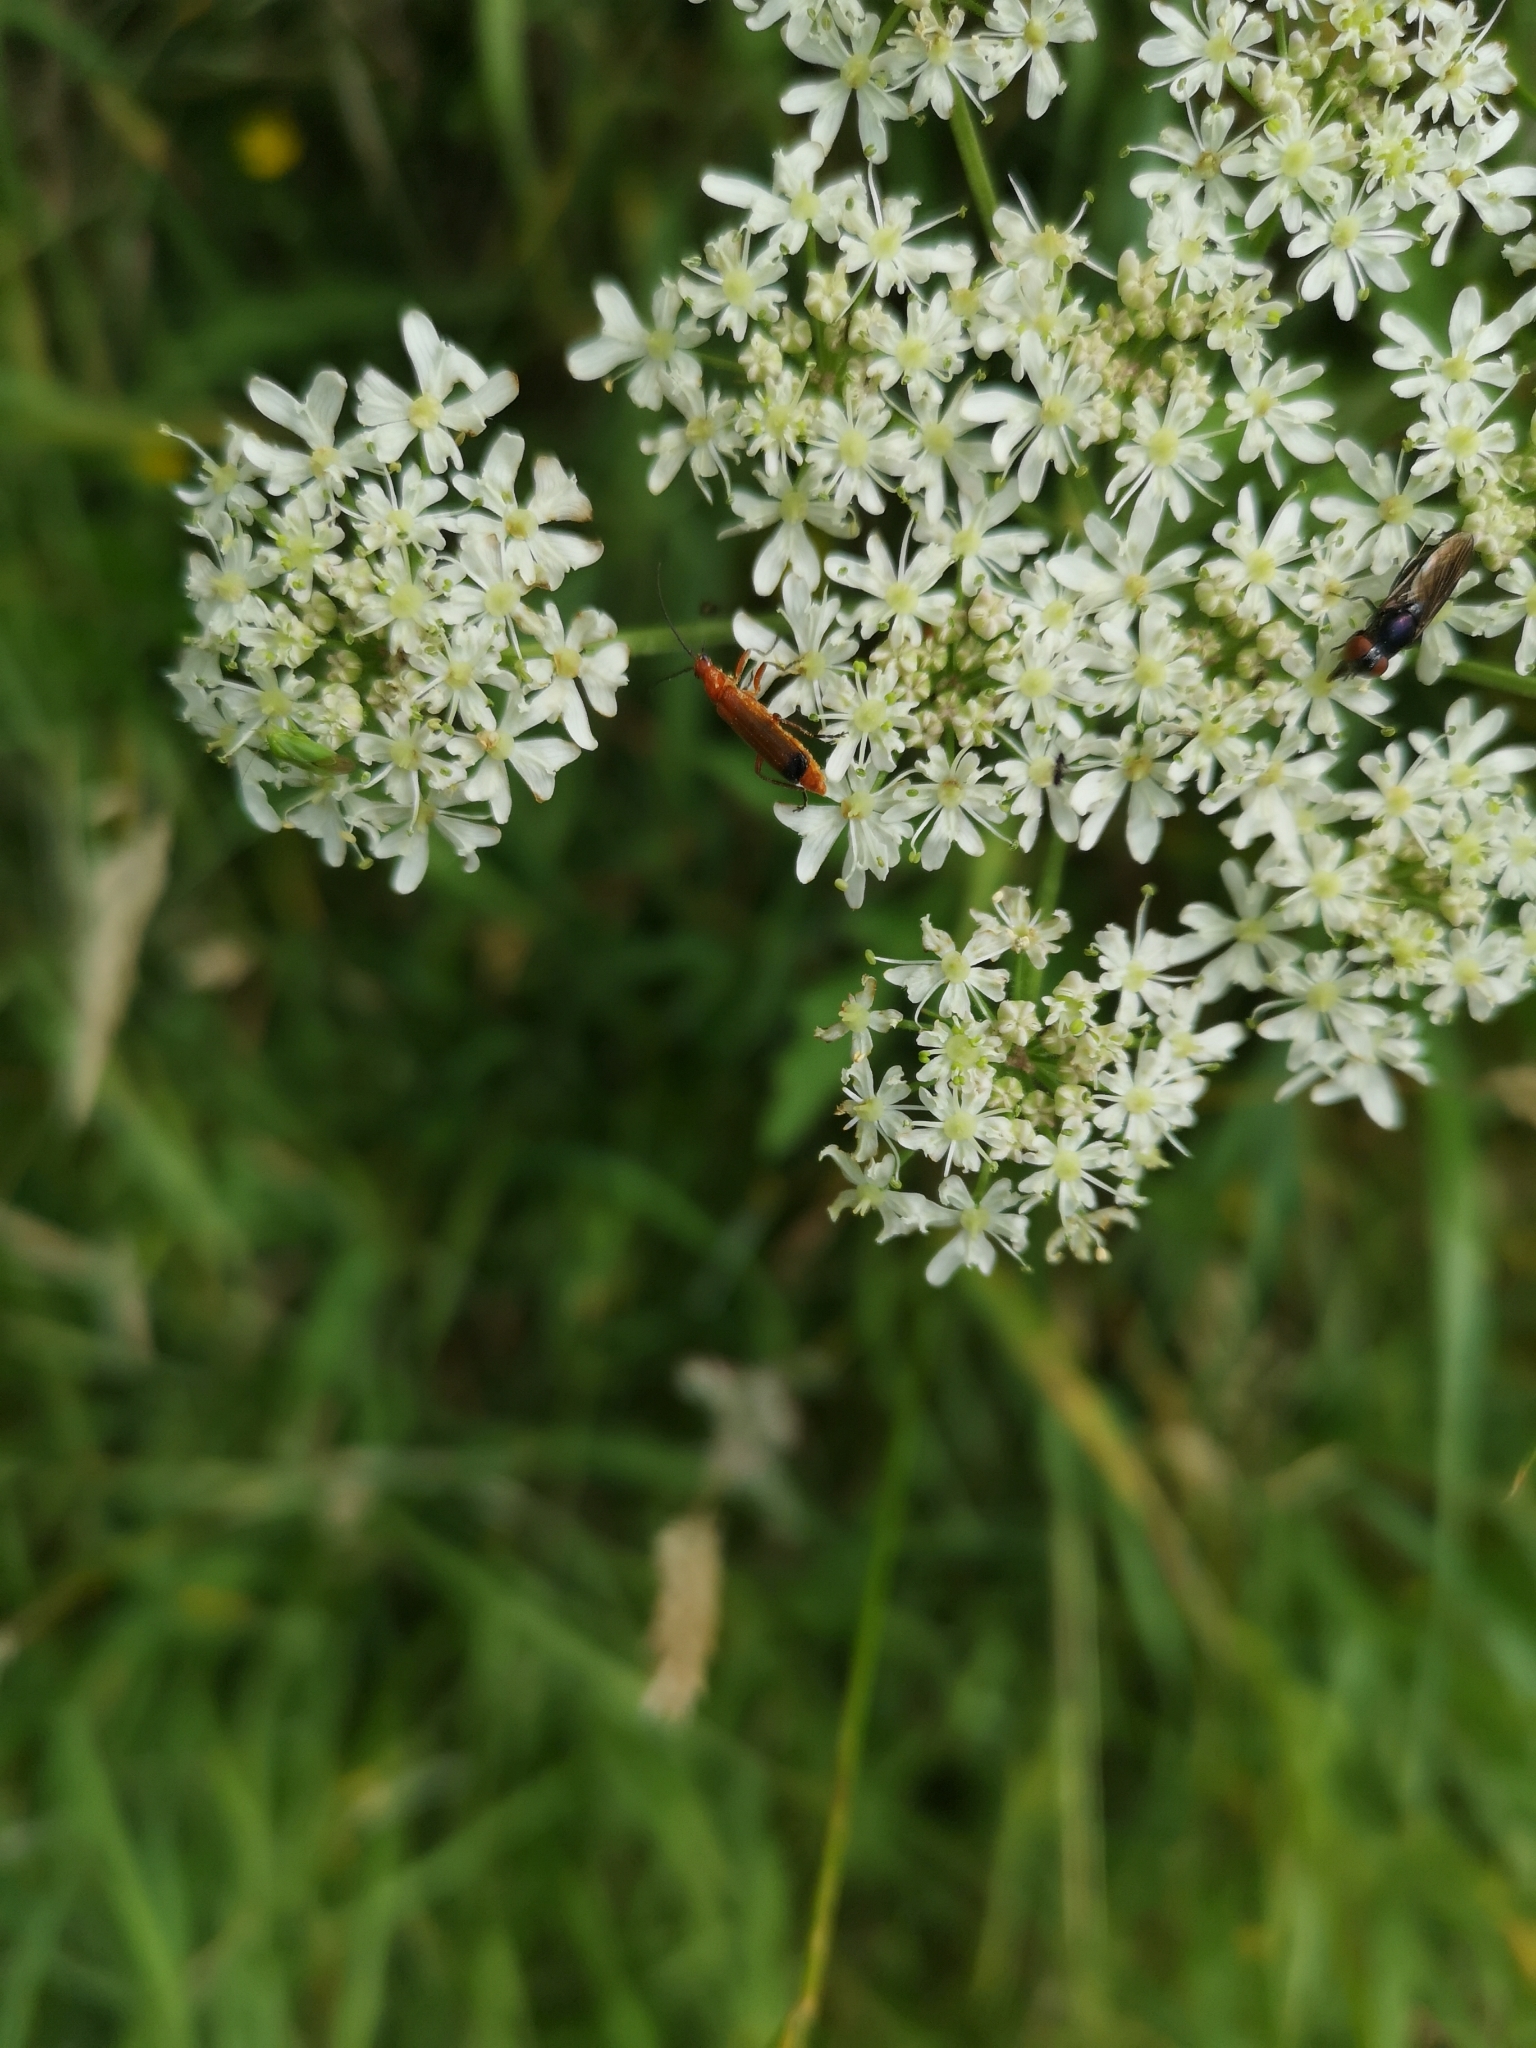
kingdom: Animalia
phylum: Arthropoda
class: Insecta
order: Coleoptera
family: Cantharidae
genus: Rhagonycha
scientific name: Rhagonycha fulva
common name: Common red soldier beetle
